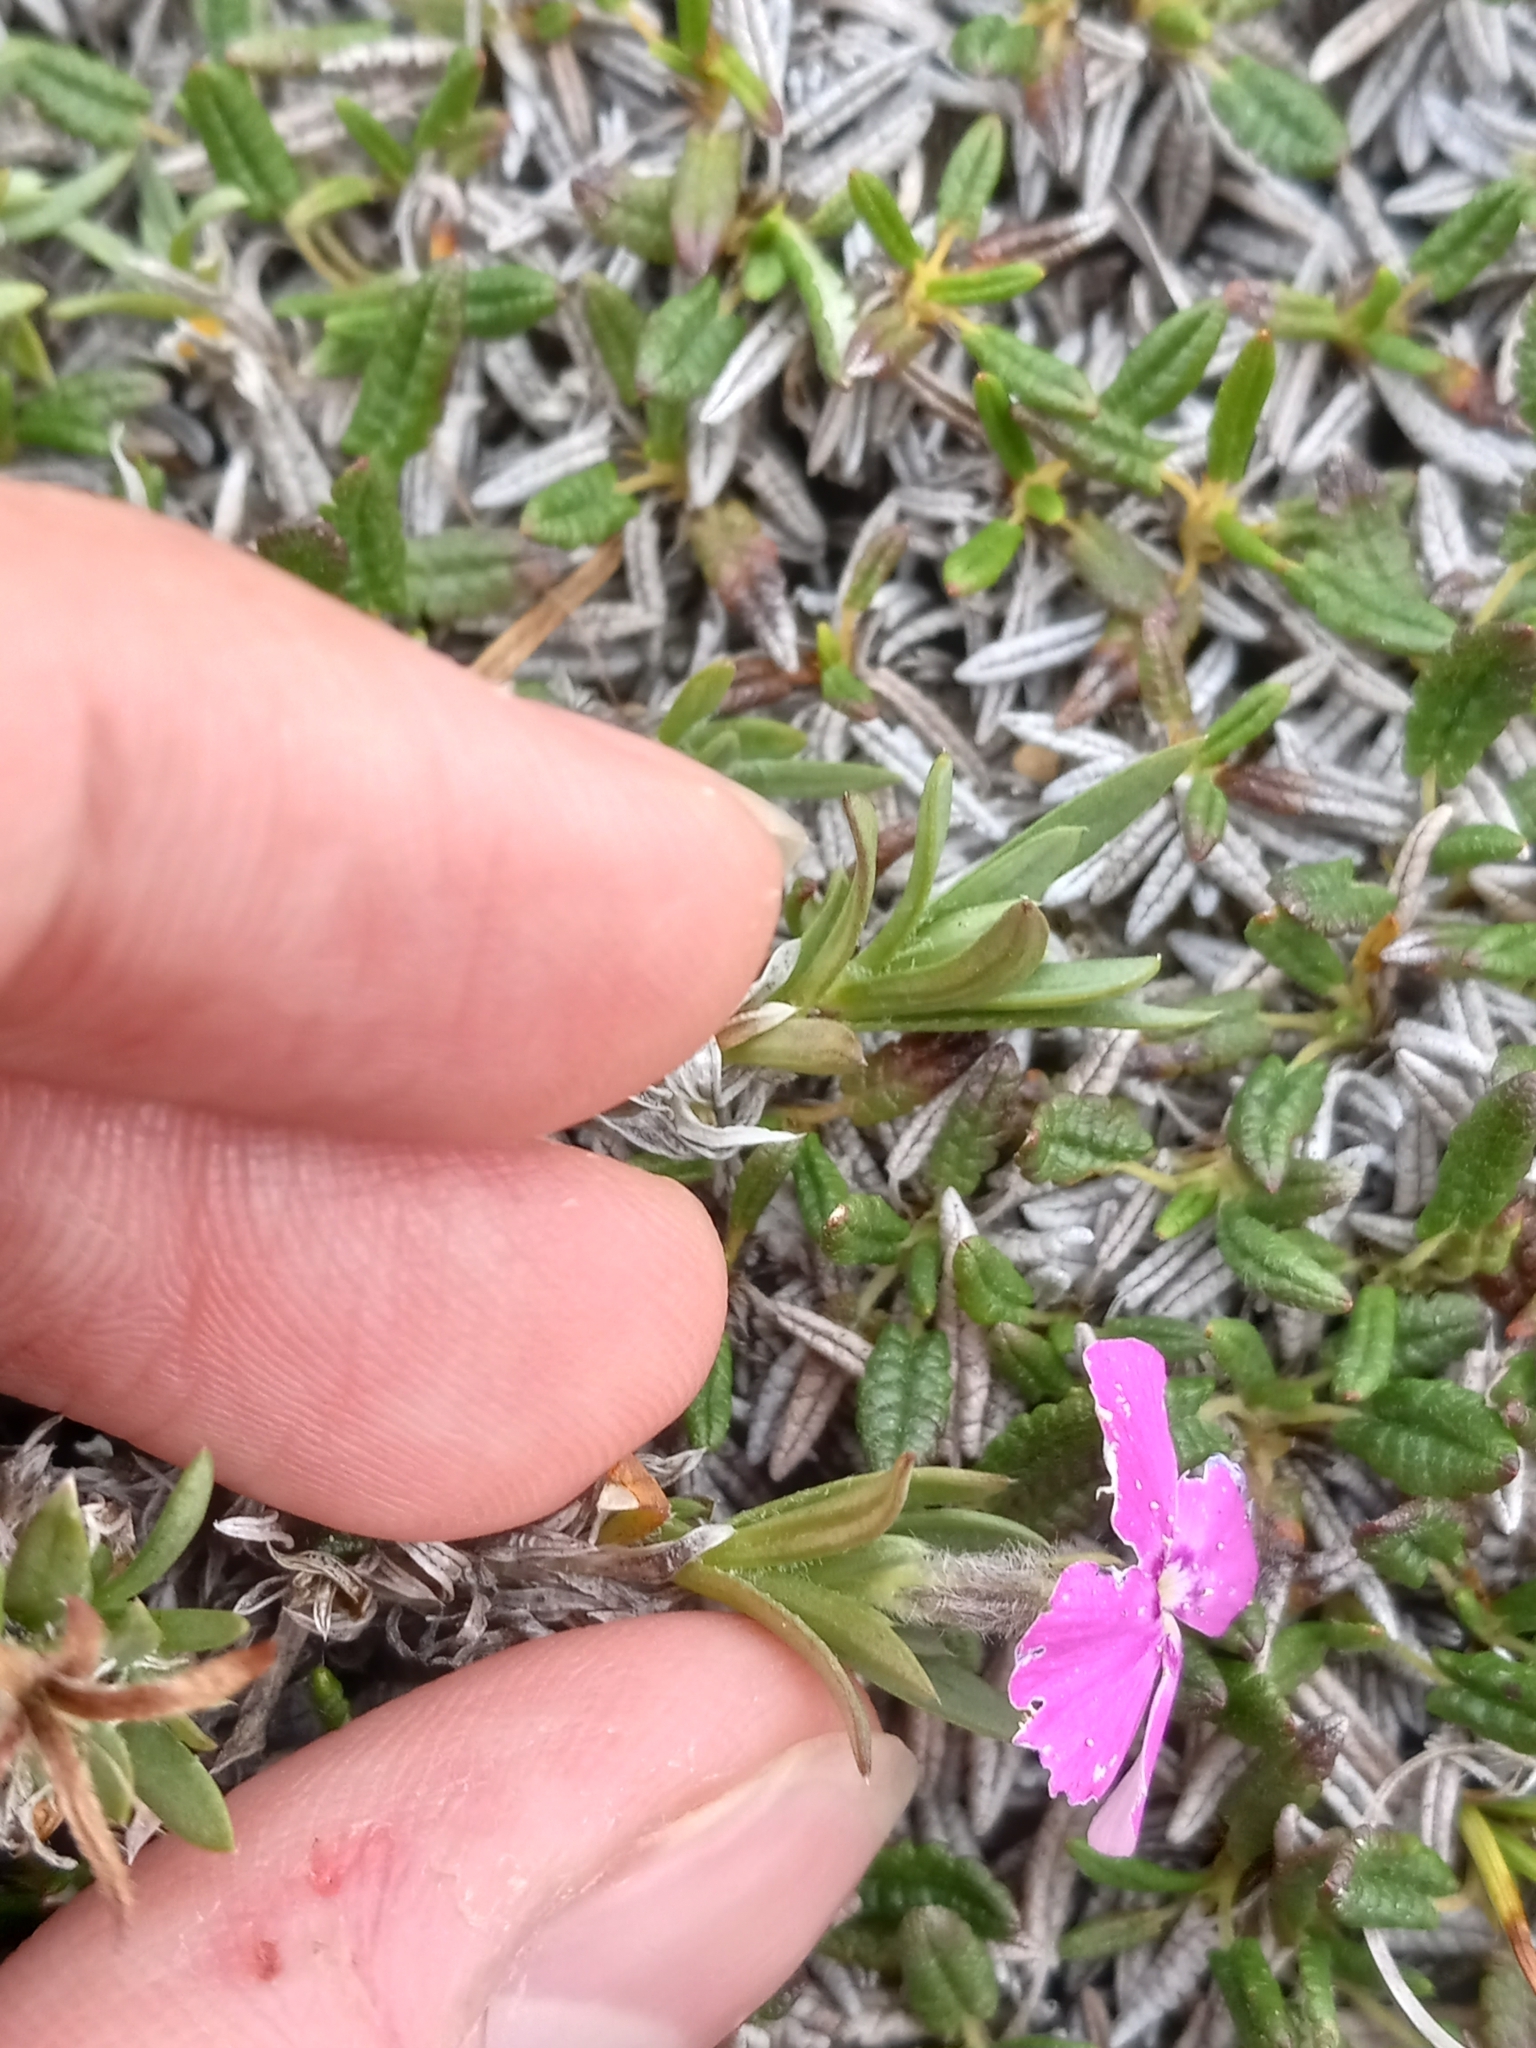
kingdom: Plantae
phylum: Tracheophyta
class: Magnoliopsida
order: Ericales
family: Polemoniaceae
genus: Phlox
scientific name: Phlox richardsonii
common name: Richardson's phlox
